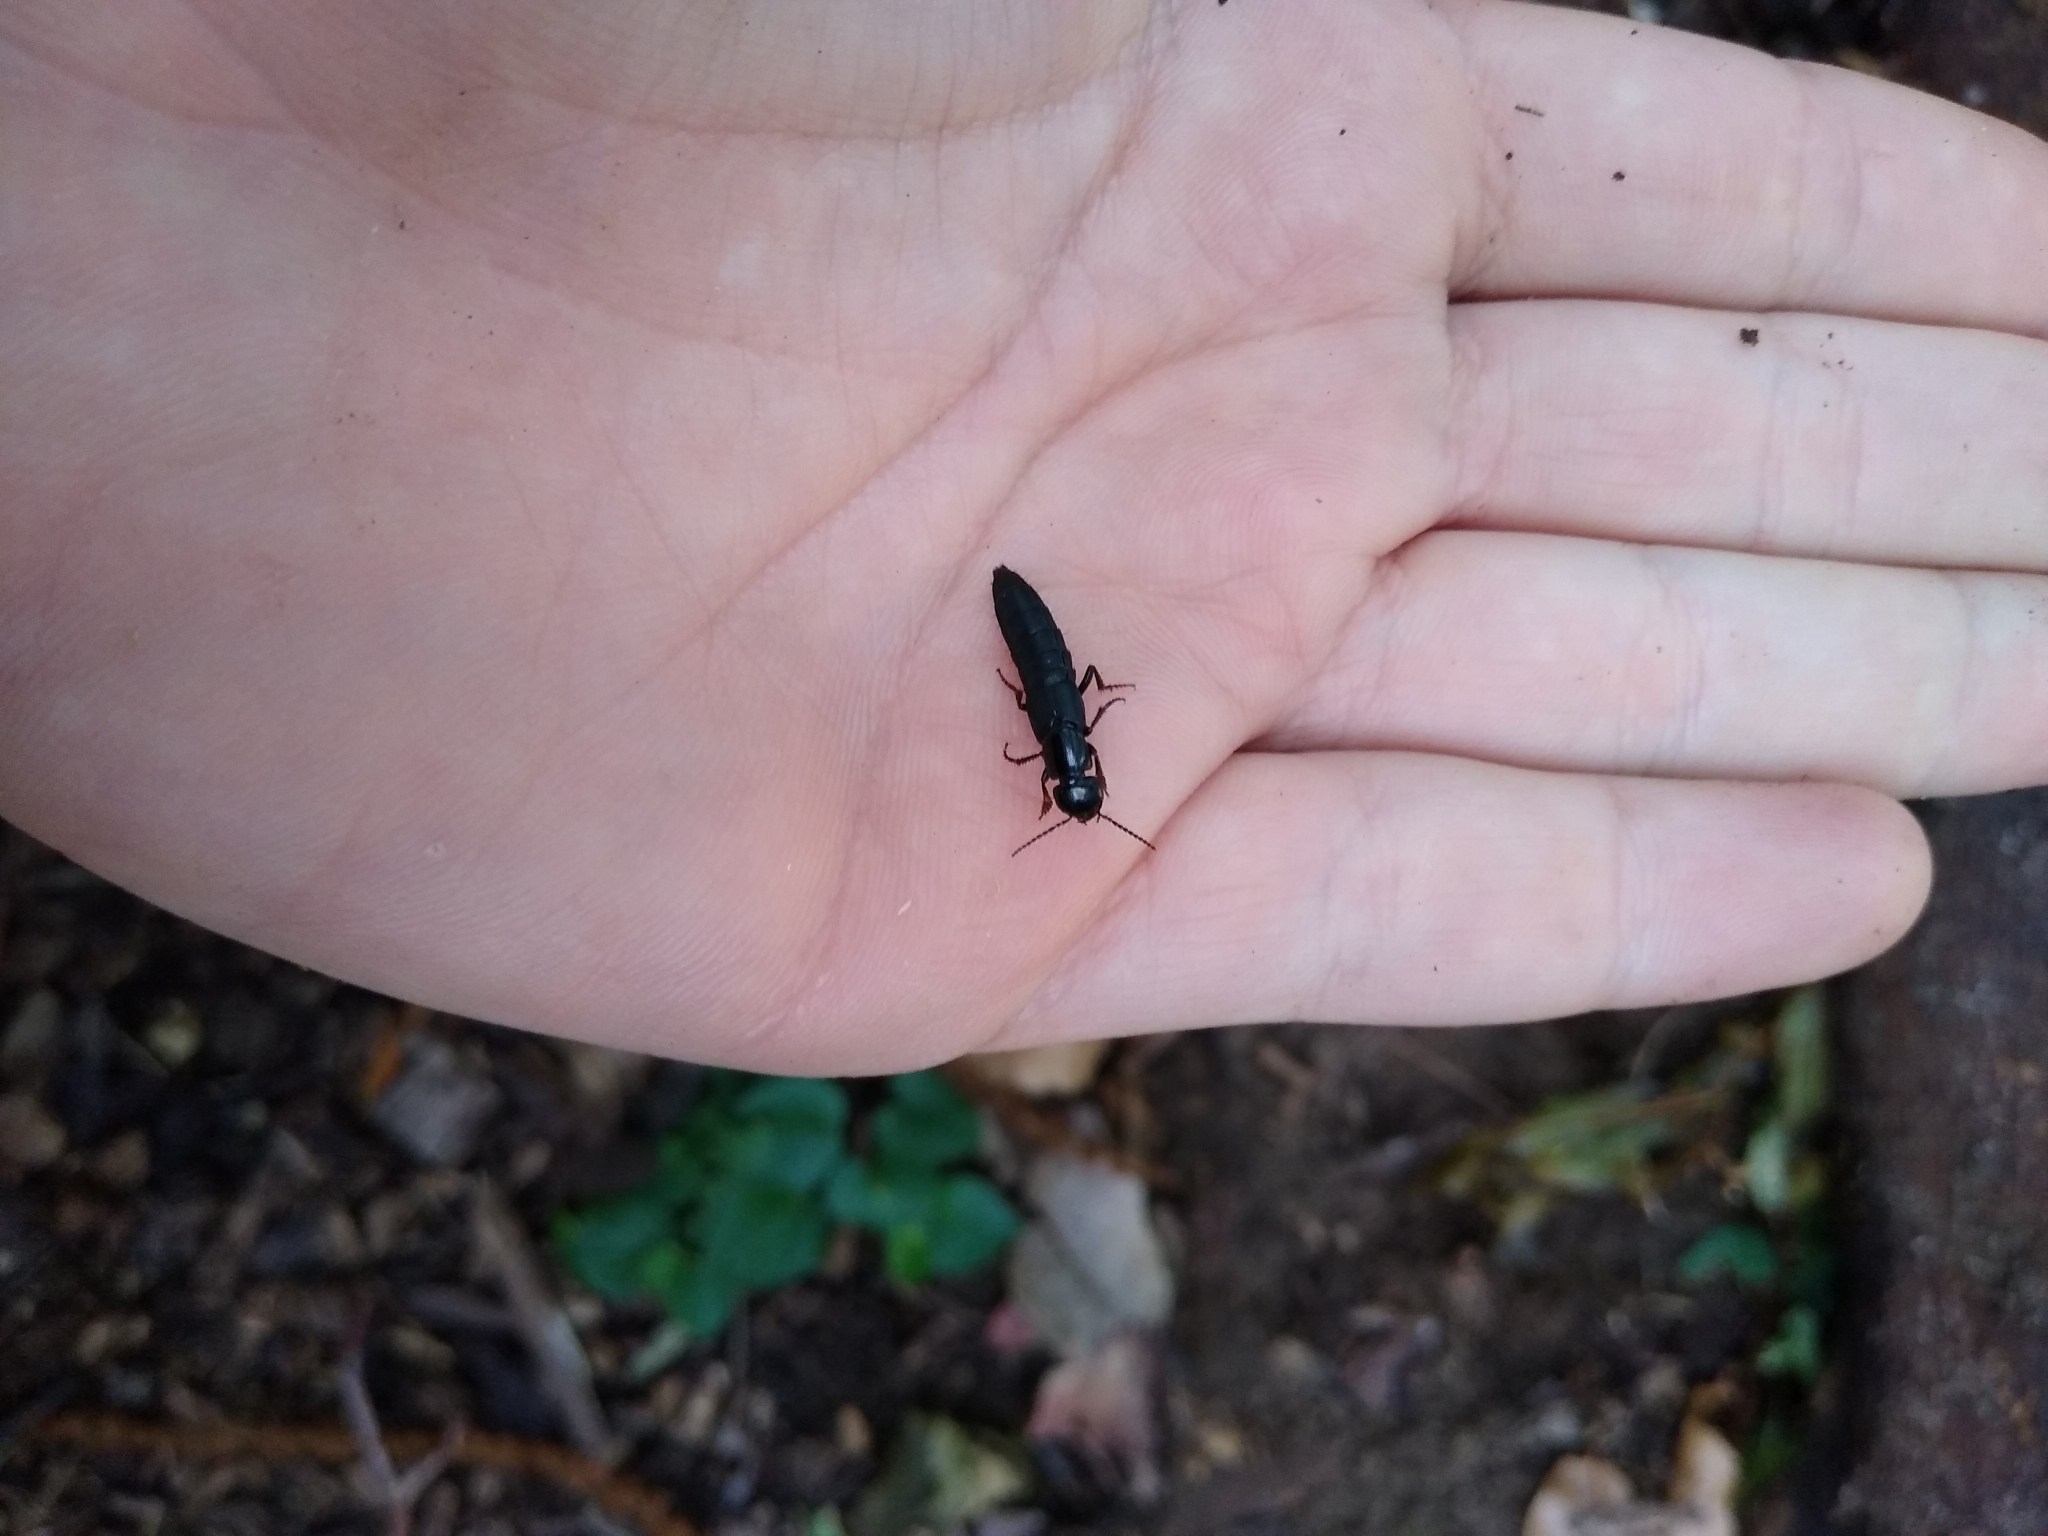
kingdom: Animalia
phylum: Arthropoda
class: Insecta
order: Coleoptera
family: Staphylinidae
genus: Ocypus
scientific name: Ocypus olens
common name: Devil's coach-horse
